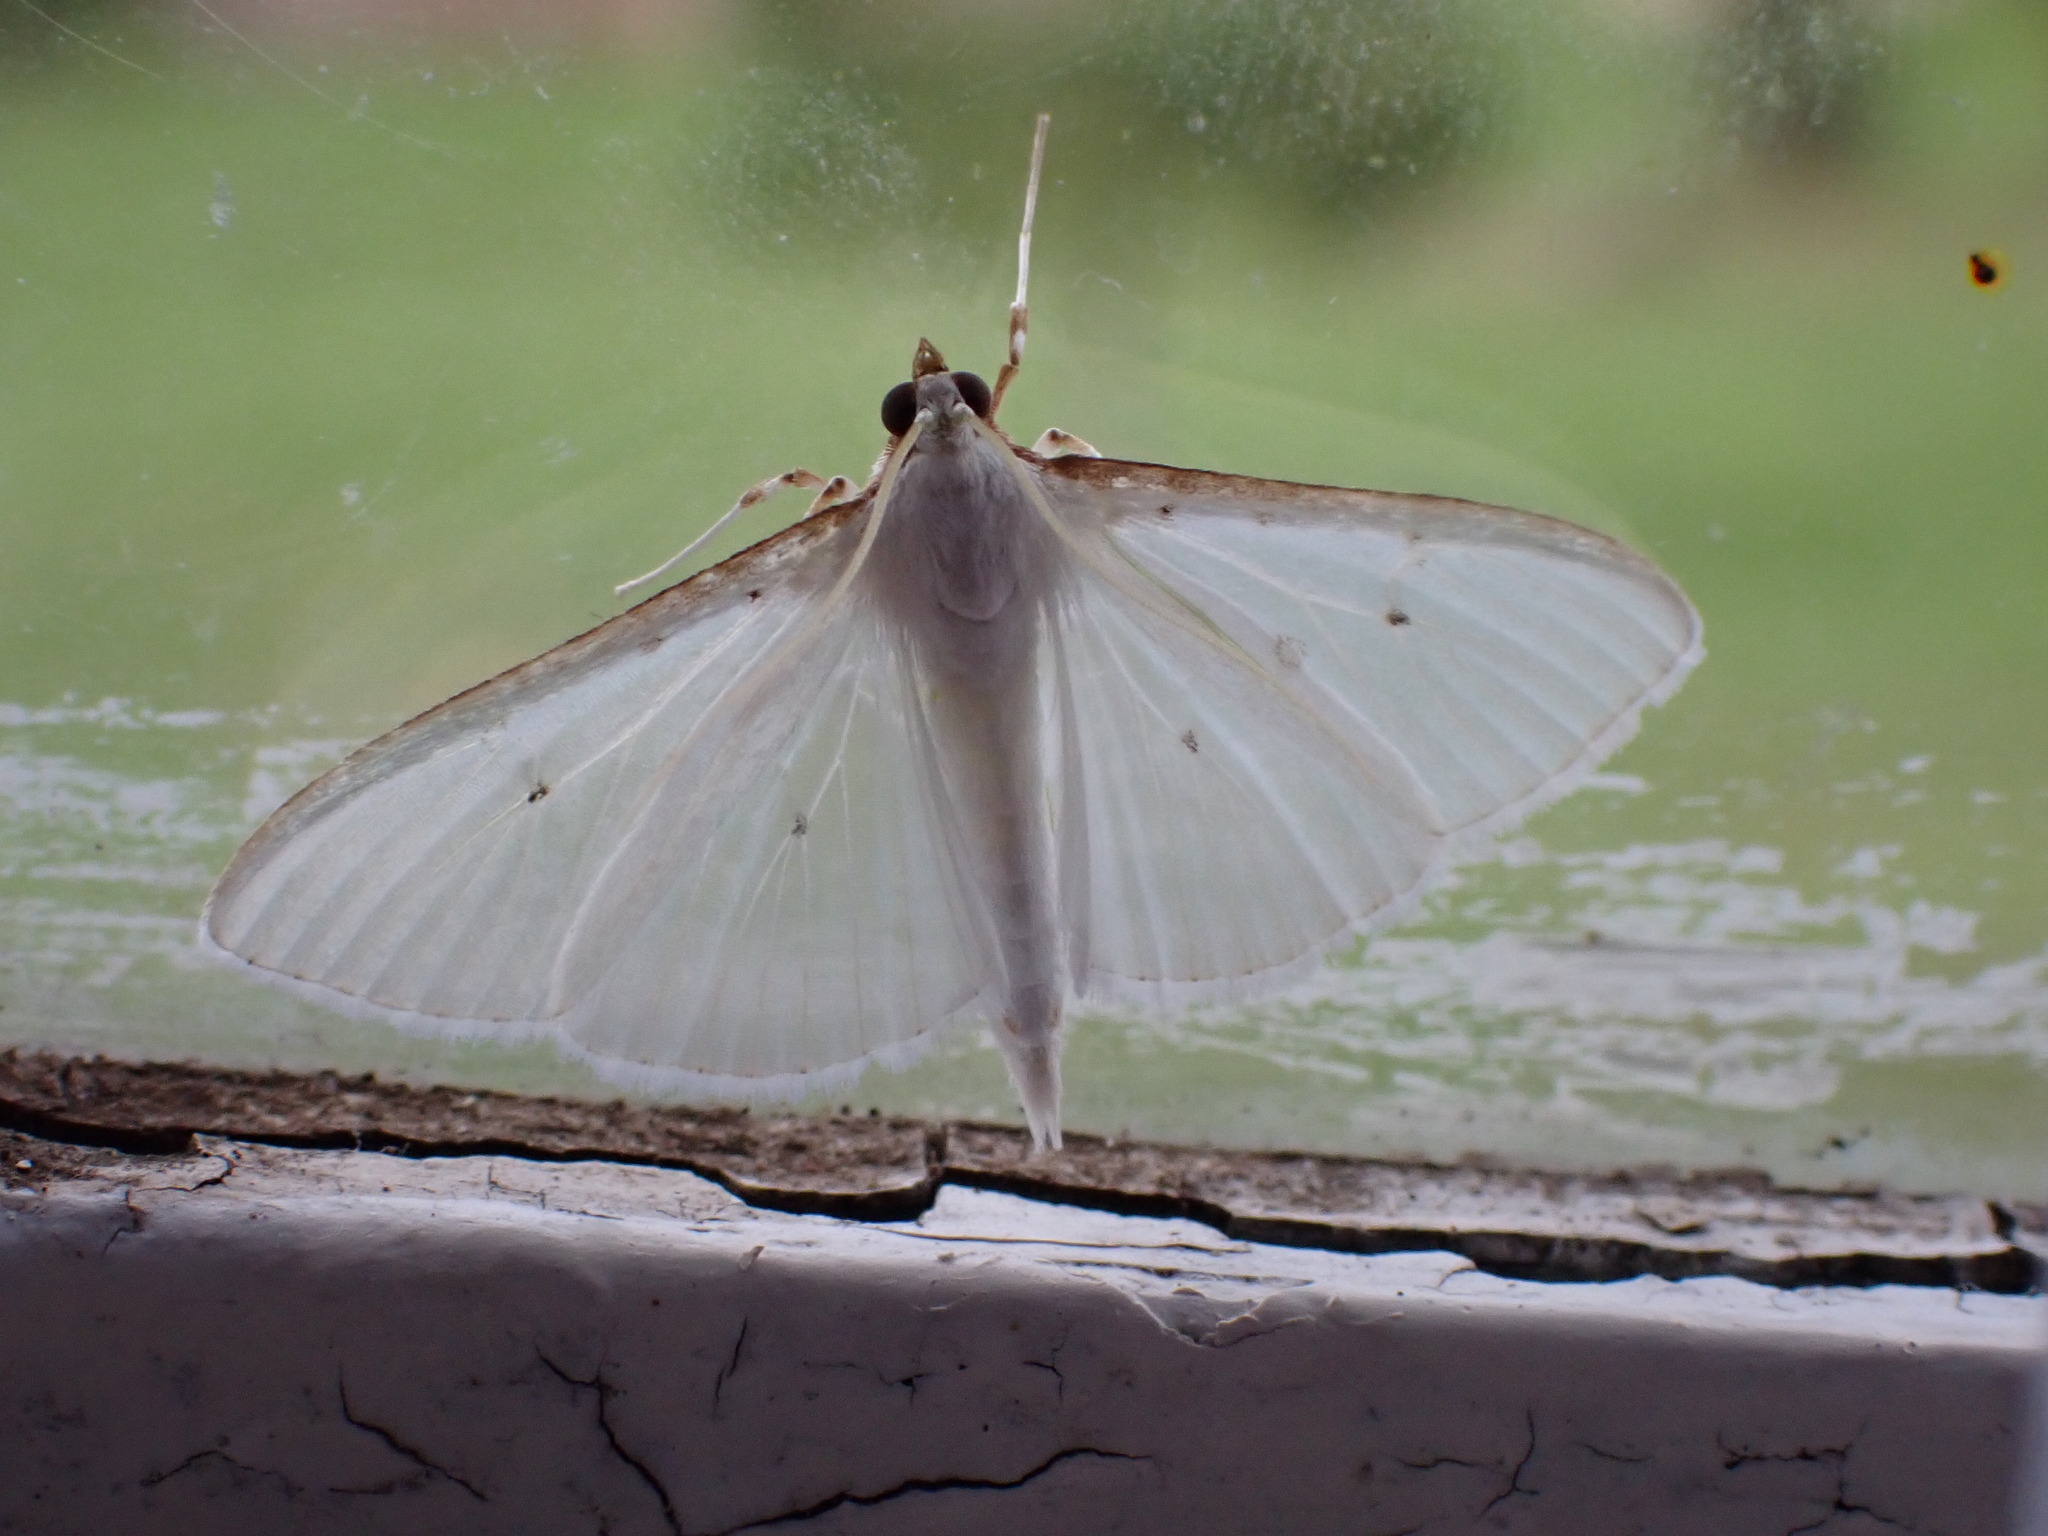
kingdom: Animalia
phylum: Arthropoda
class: Insecta
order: Lepidoptera
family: Crambidae
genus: Palpita
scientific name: Palpita vitrealis
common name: Olive-tree pearl
